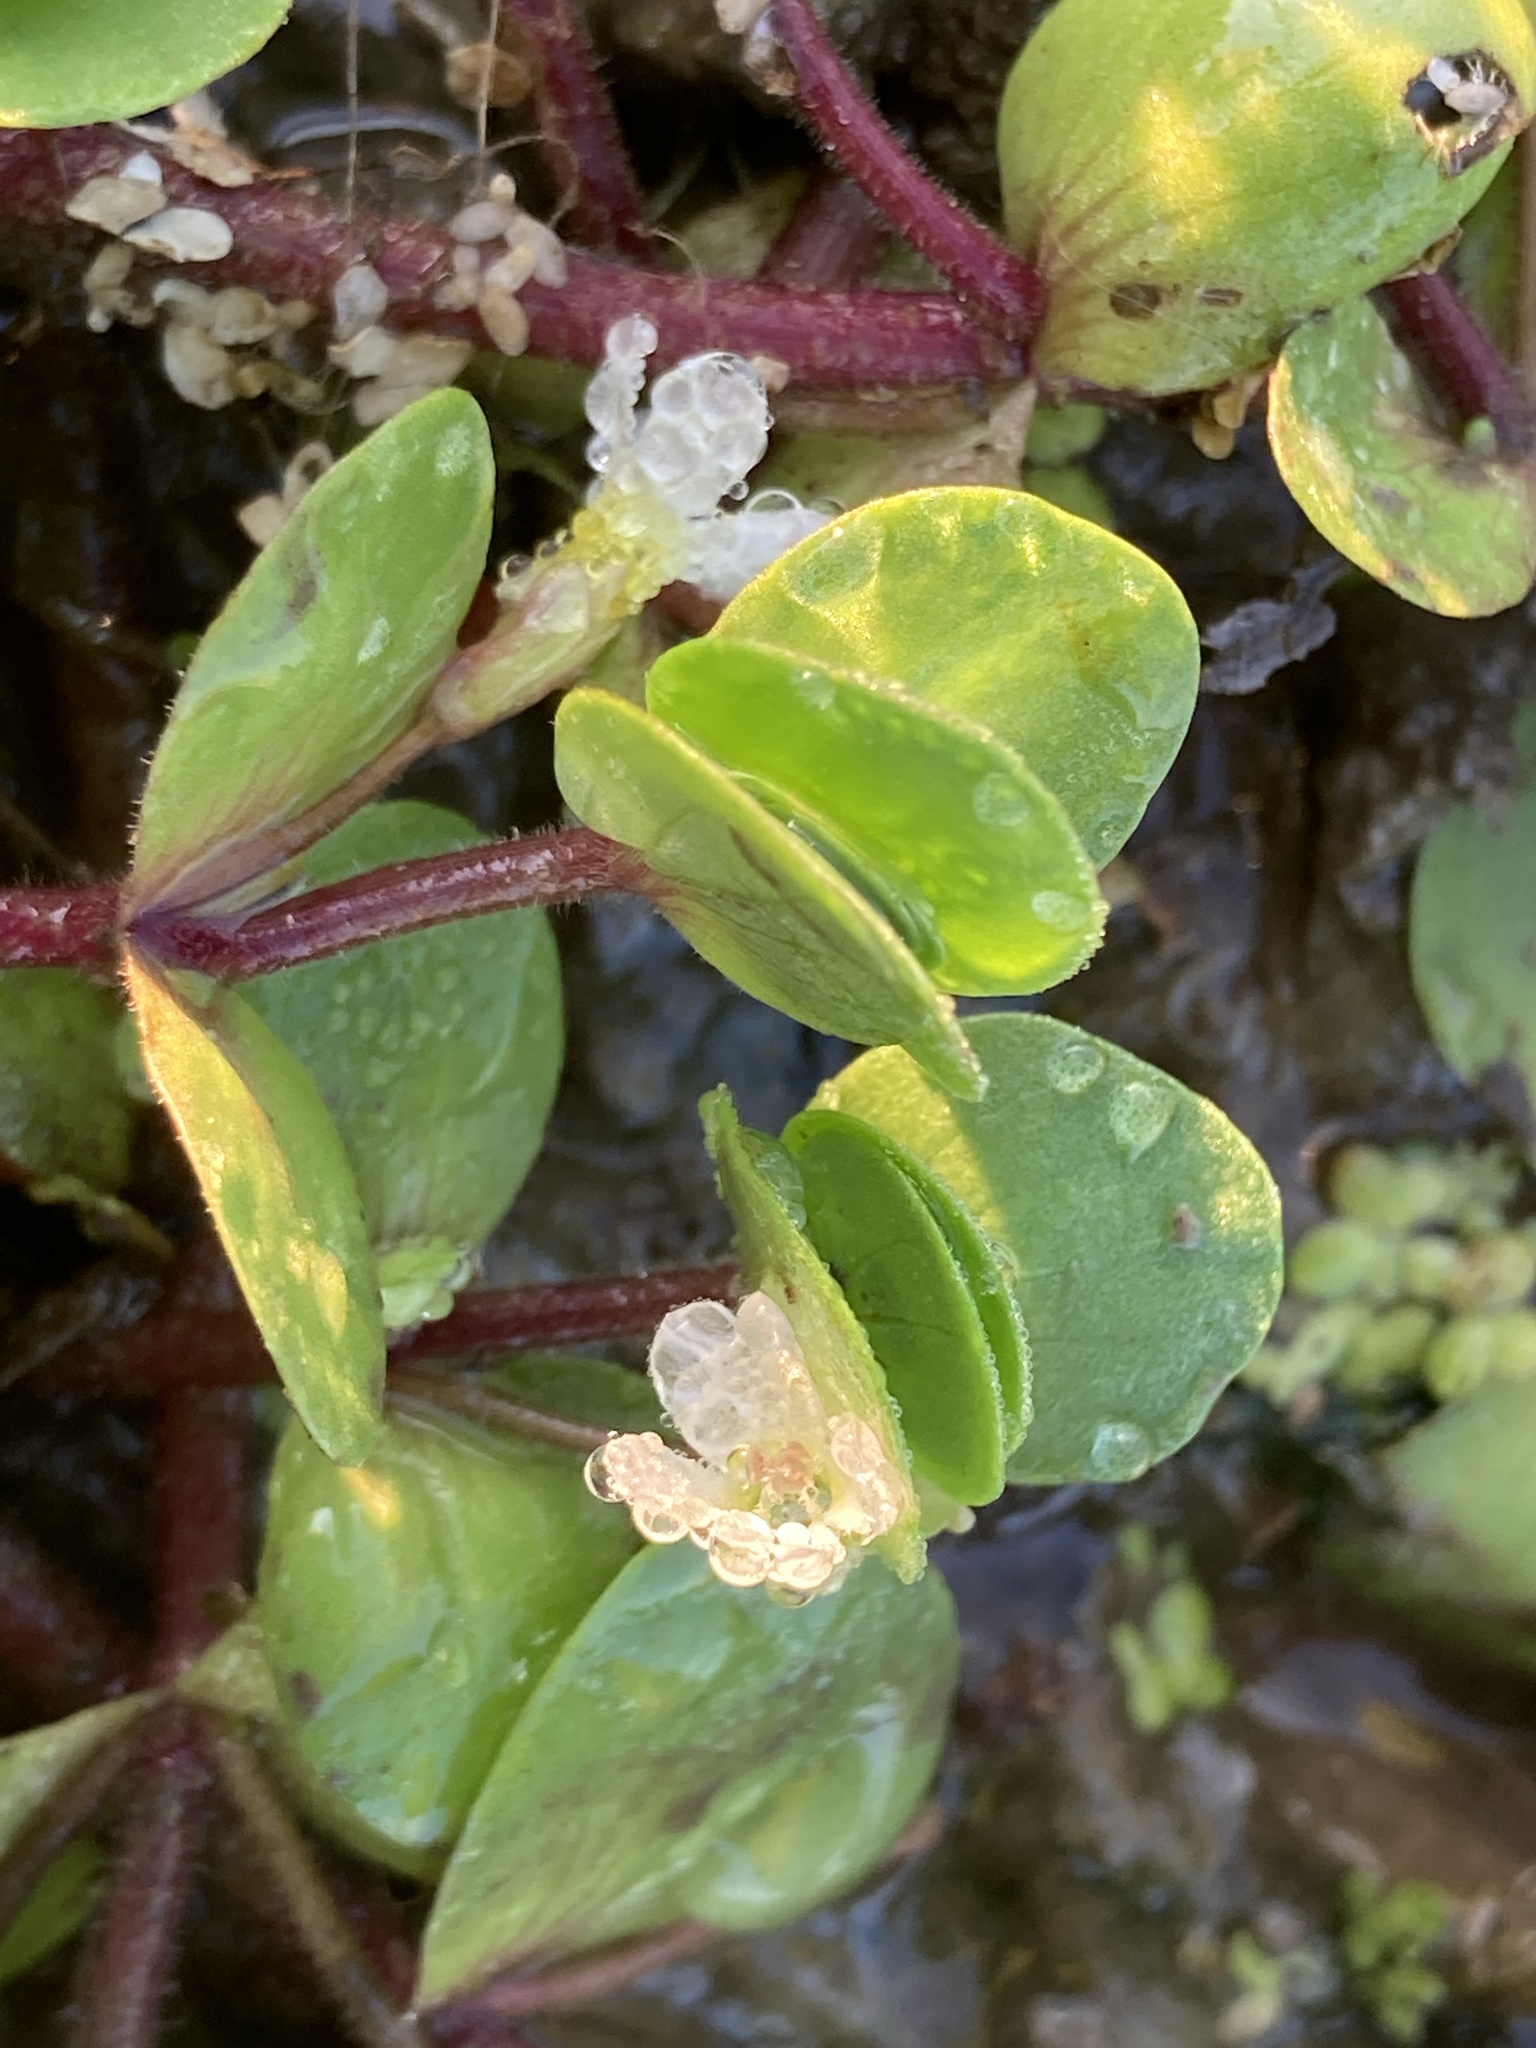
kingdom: Plantae
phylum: Tracheophyta
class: Magnoliopsida
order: Lamiales
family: Plantaginaceae
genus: Bacopa
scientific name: Bacopa rotundifolia
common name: Disc water hyssop
